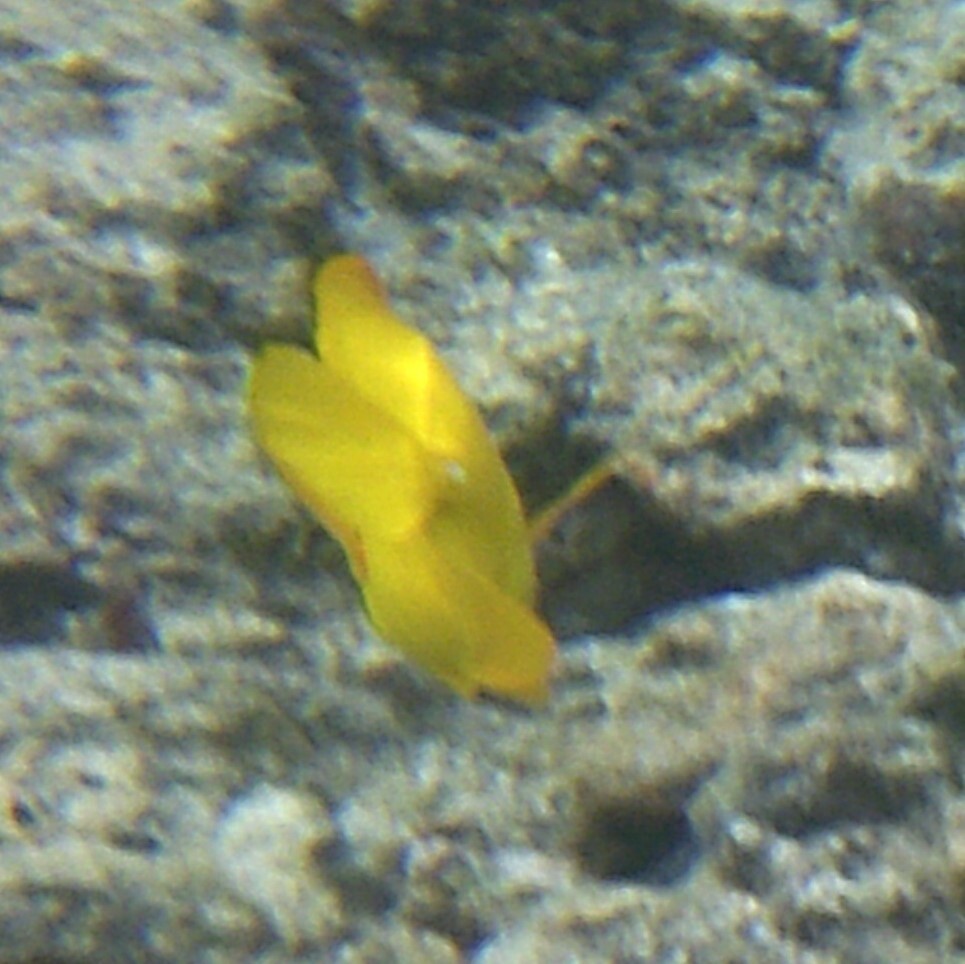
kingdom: Animalia
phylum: Chordata
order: Perciformes
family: Acanthuridae
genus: Zebrasoma
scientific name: Zebrasoma flavescens
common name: Yellow tang
